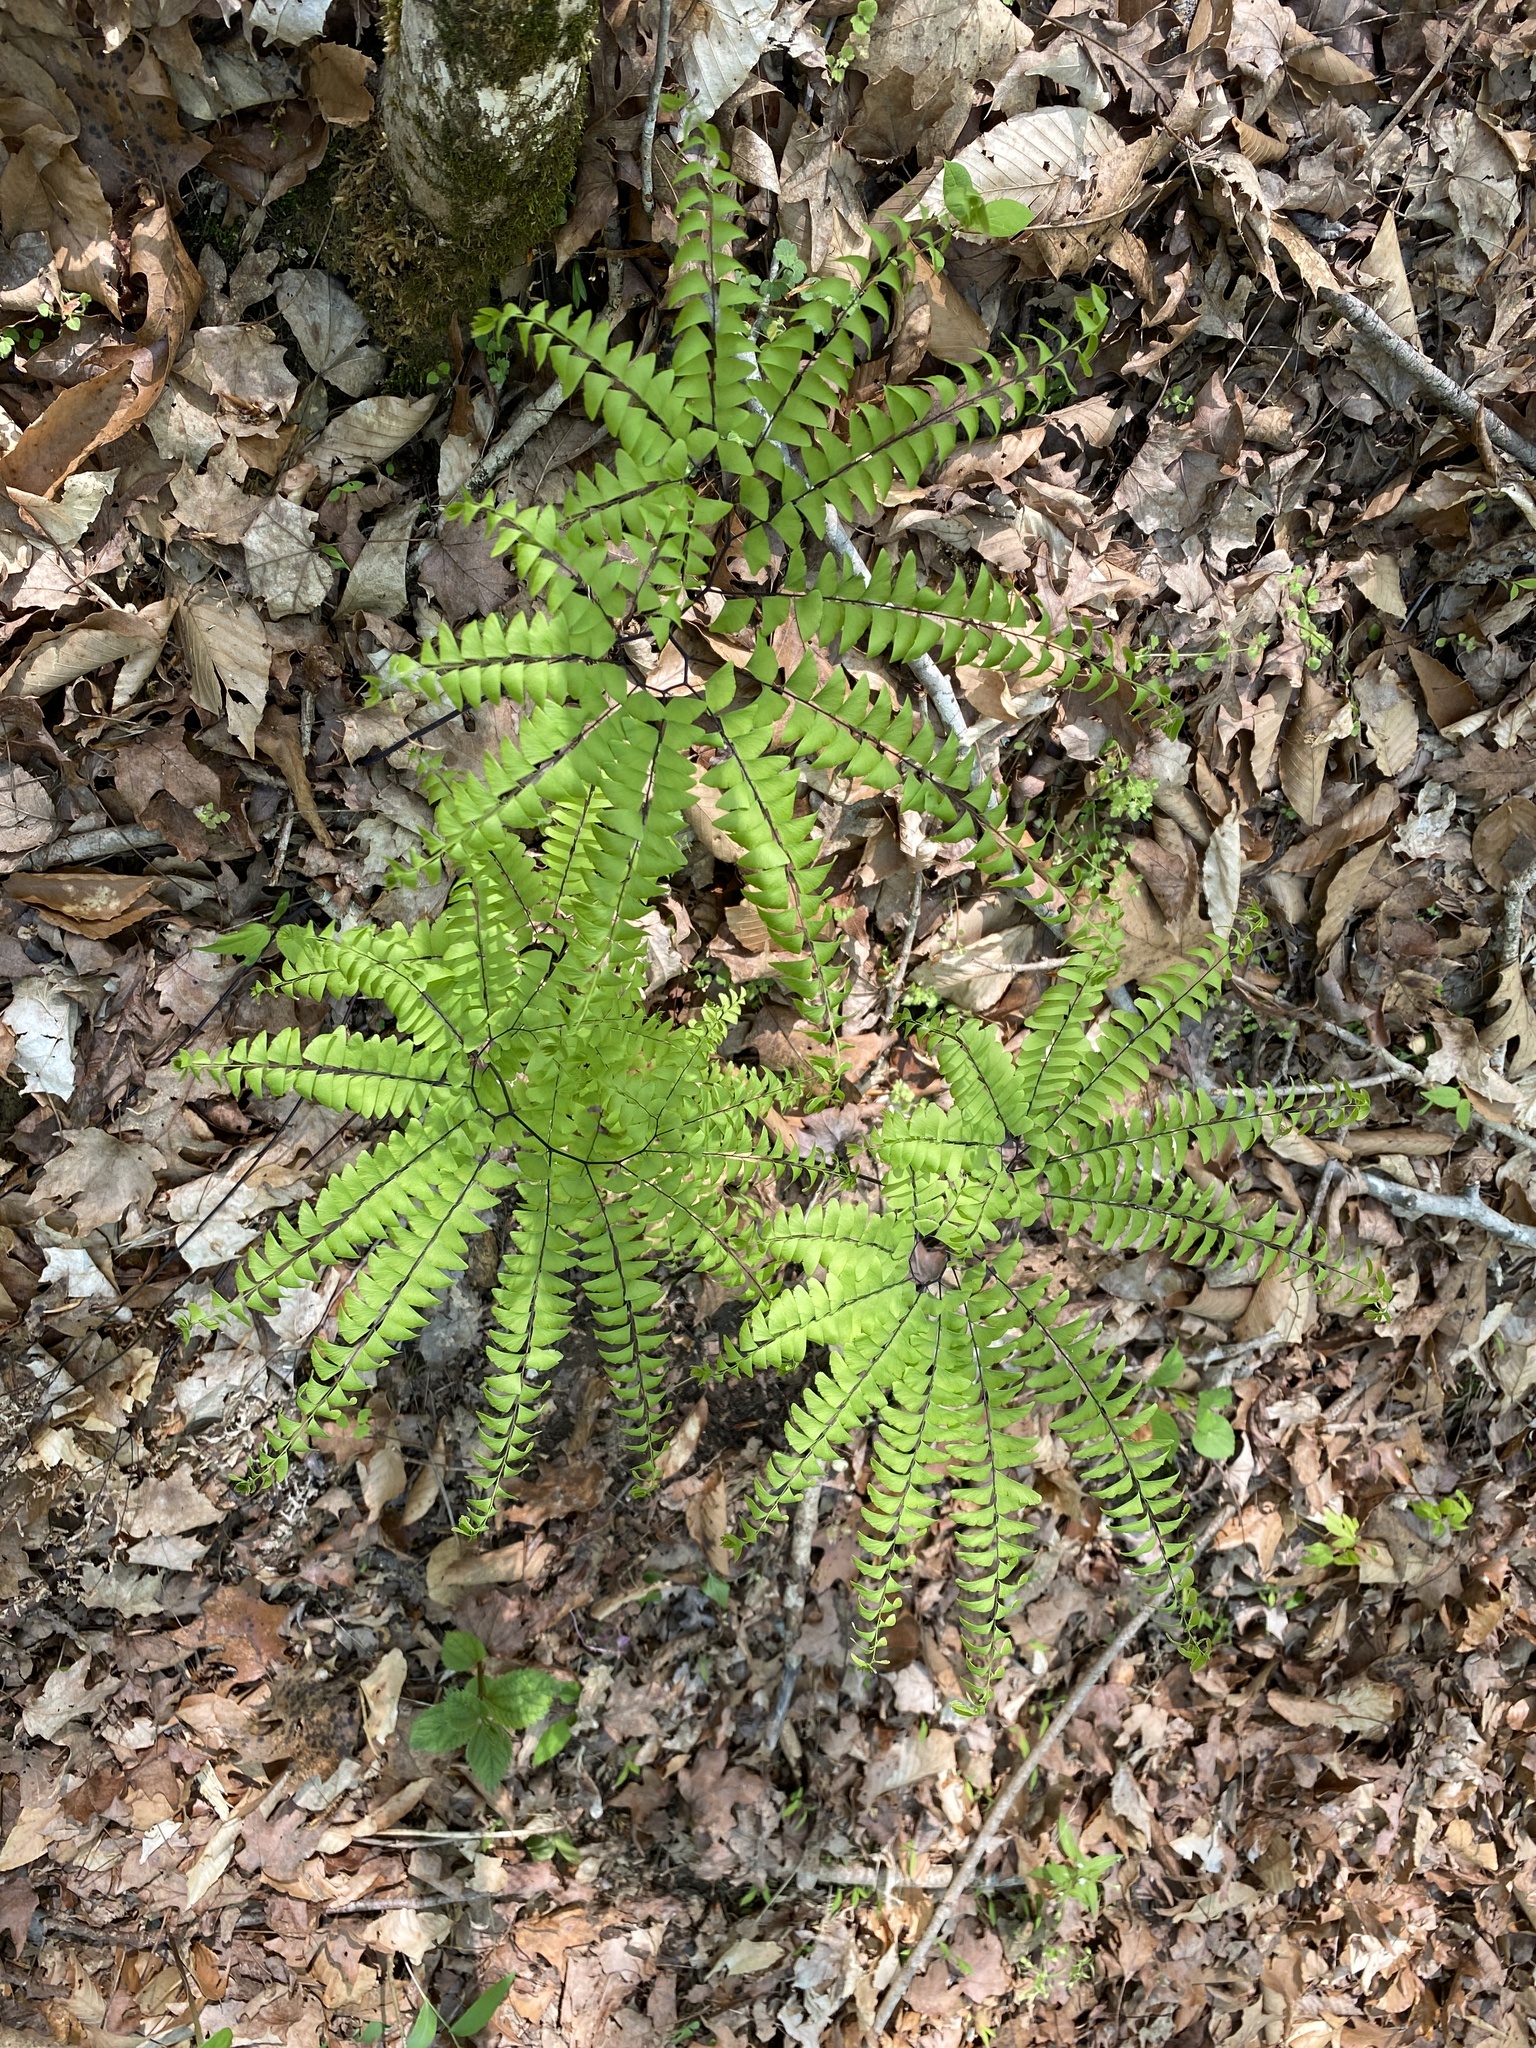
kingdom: Plantae
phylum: Tracheophyta
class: Polypodiopsida
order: Polypodiales
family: Pteridaceae
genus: Adiantum
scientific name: Adiantum pedatum
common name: Five-finger fern
